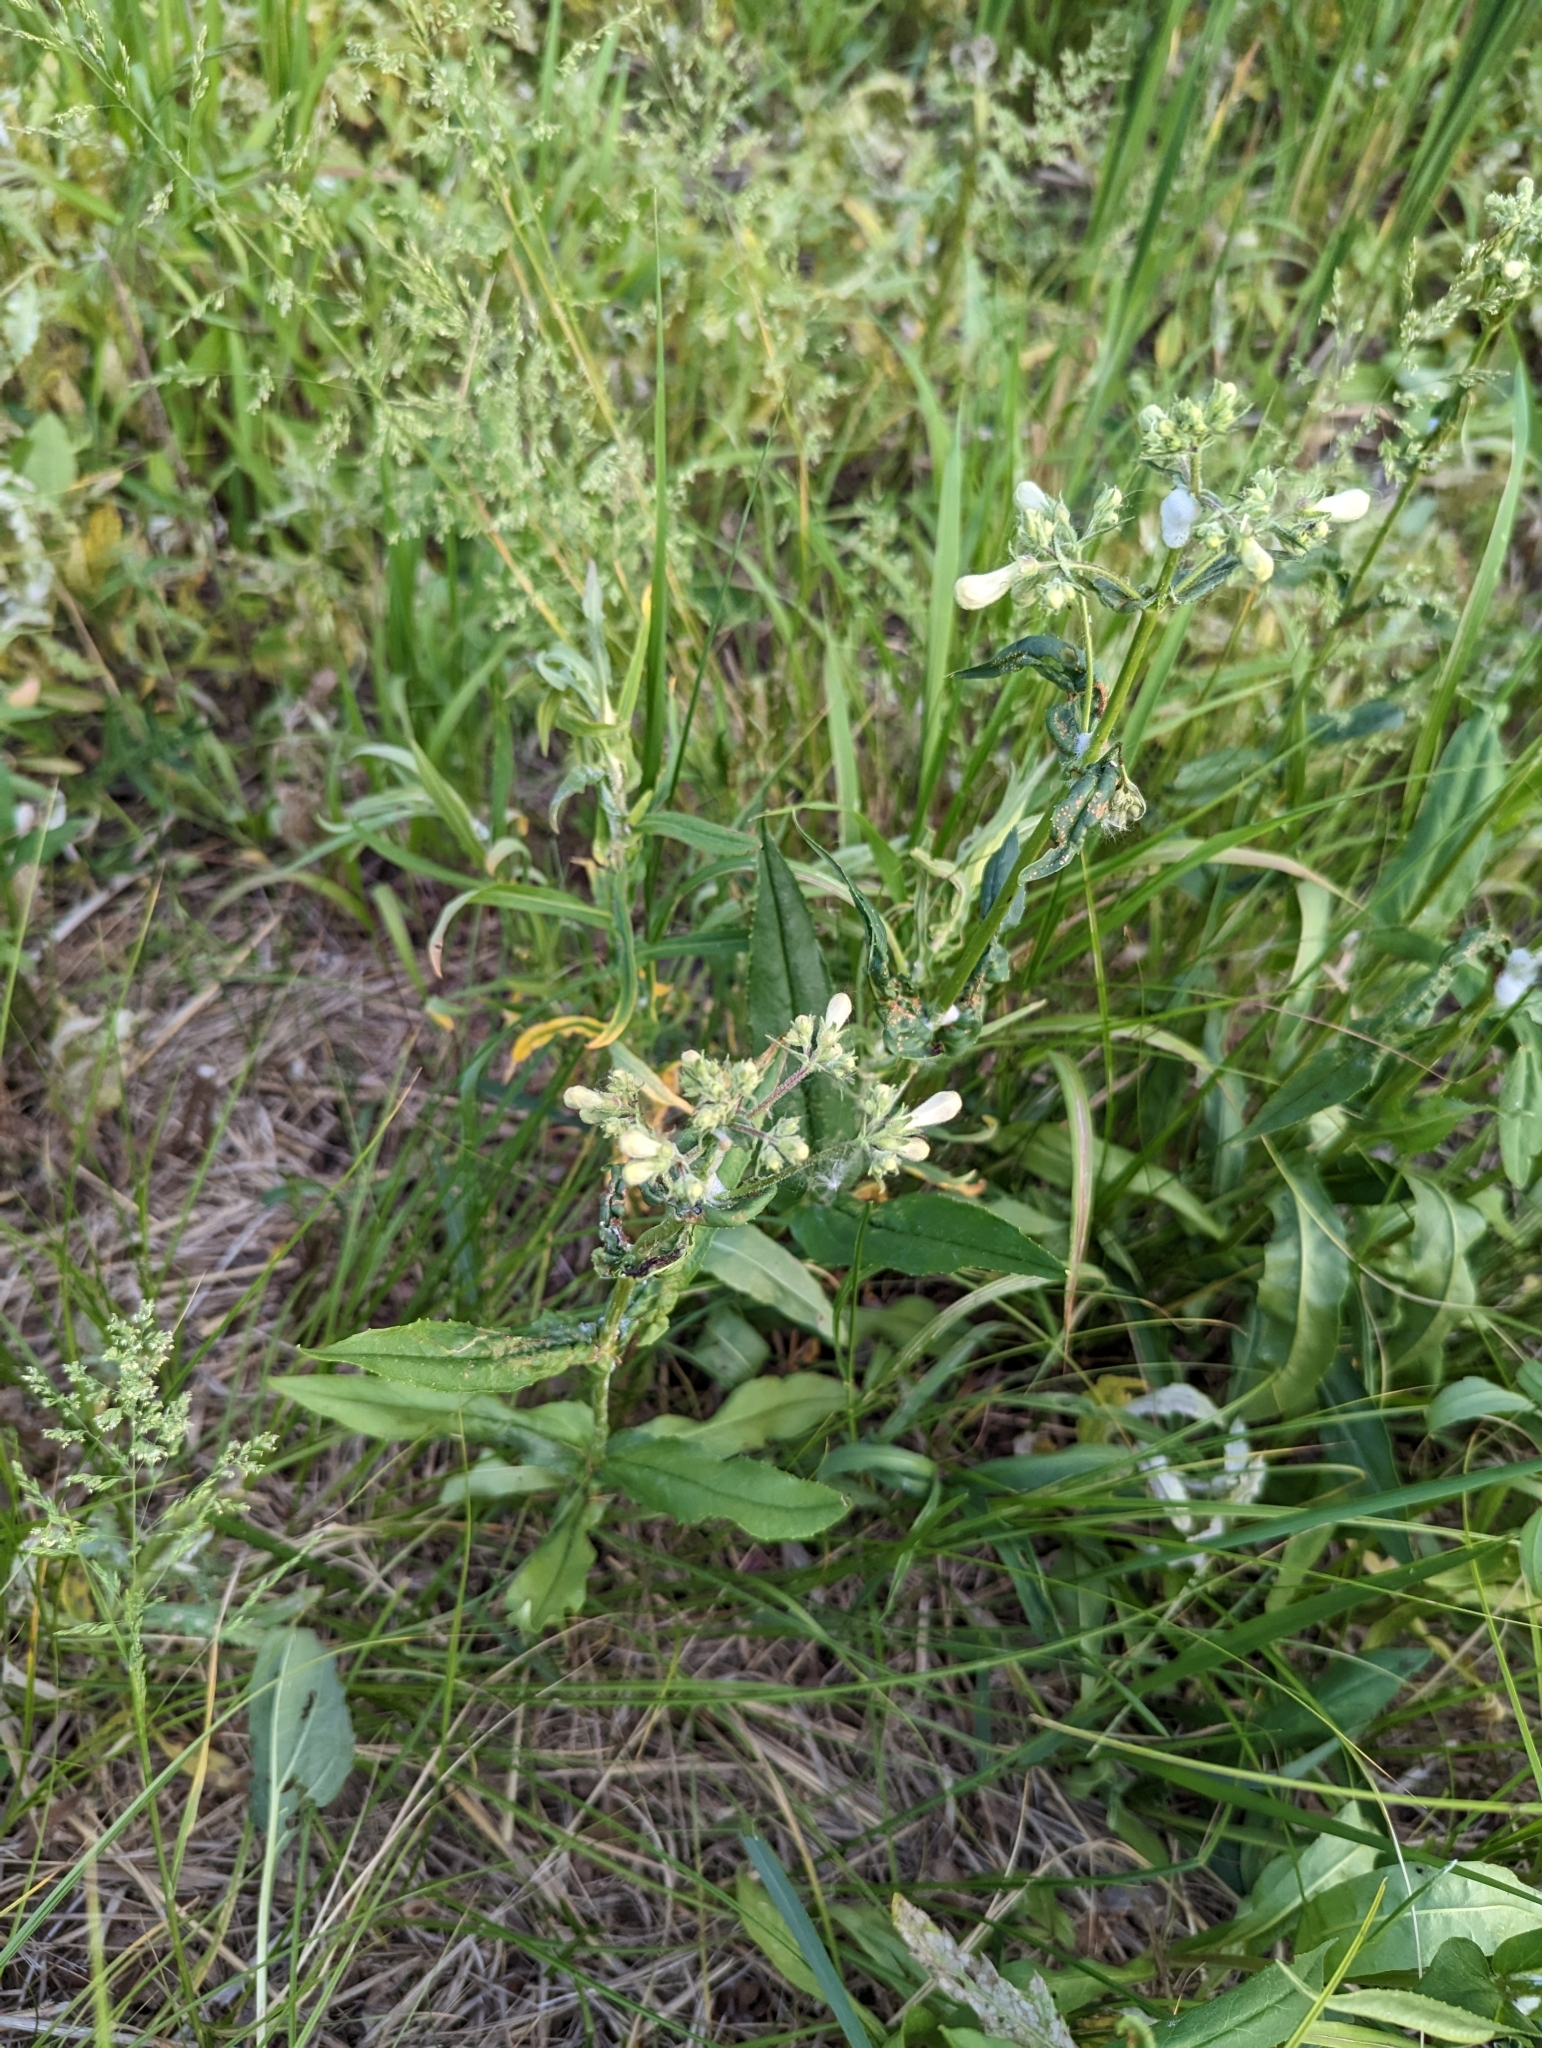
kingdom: Plantae
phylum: Tracheophyta
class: Magnoliopsida
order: Lamiales
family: Plantaginaceae
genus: Penstemon
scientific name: Penstemon digitalis
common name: Foxglove beardtongue
